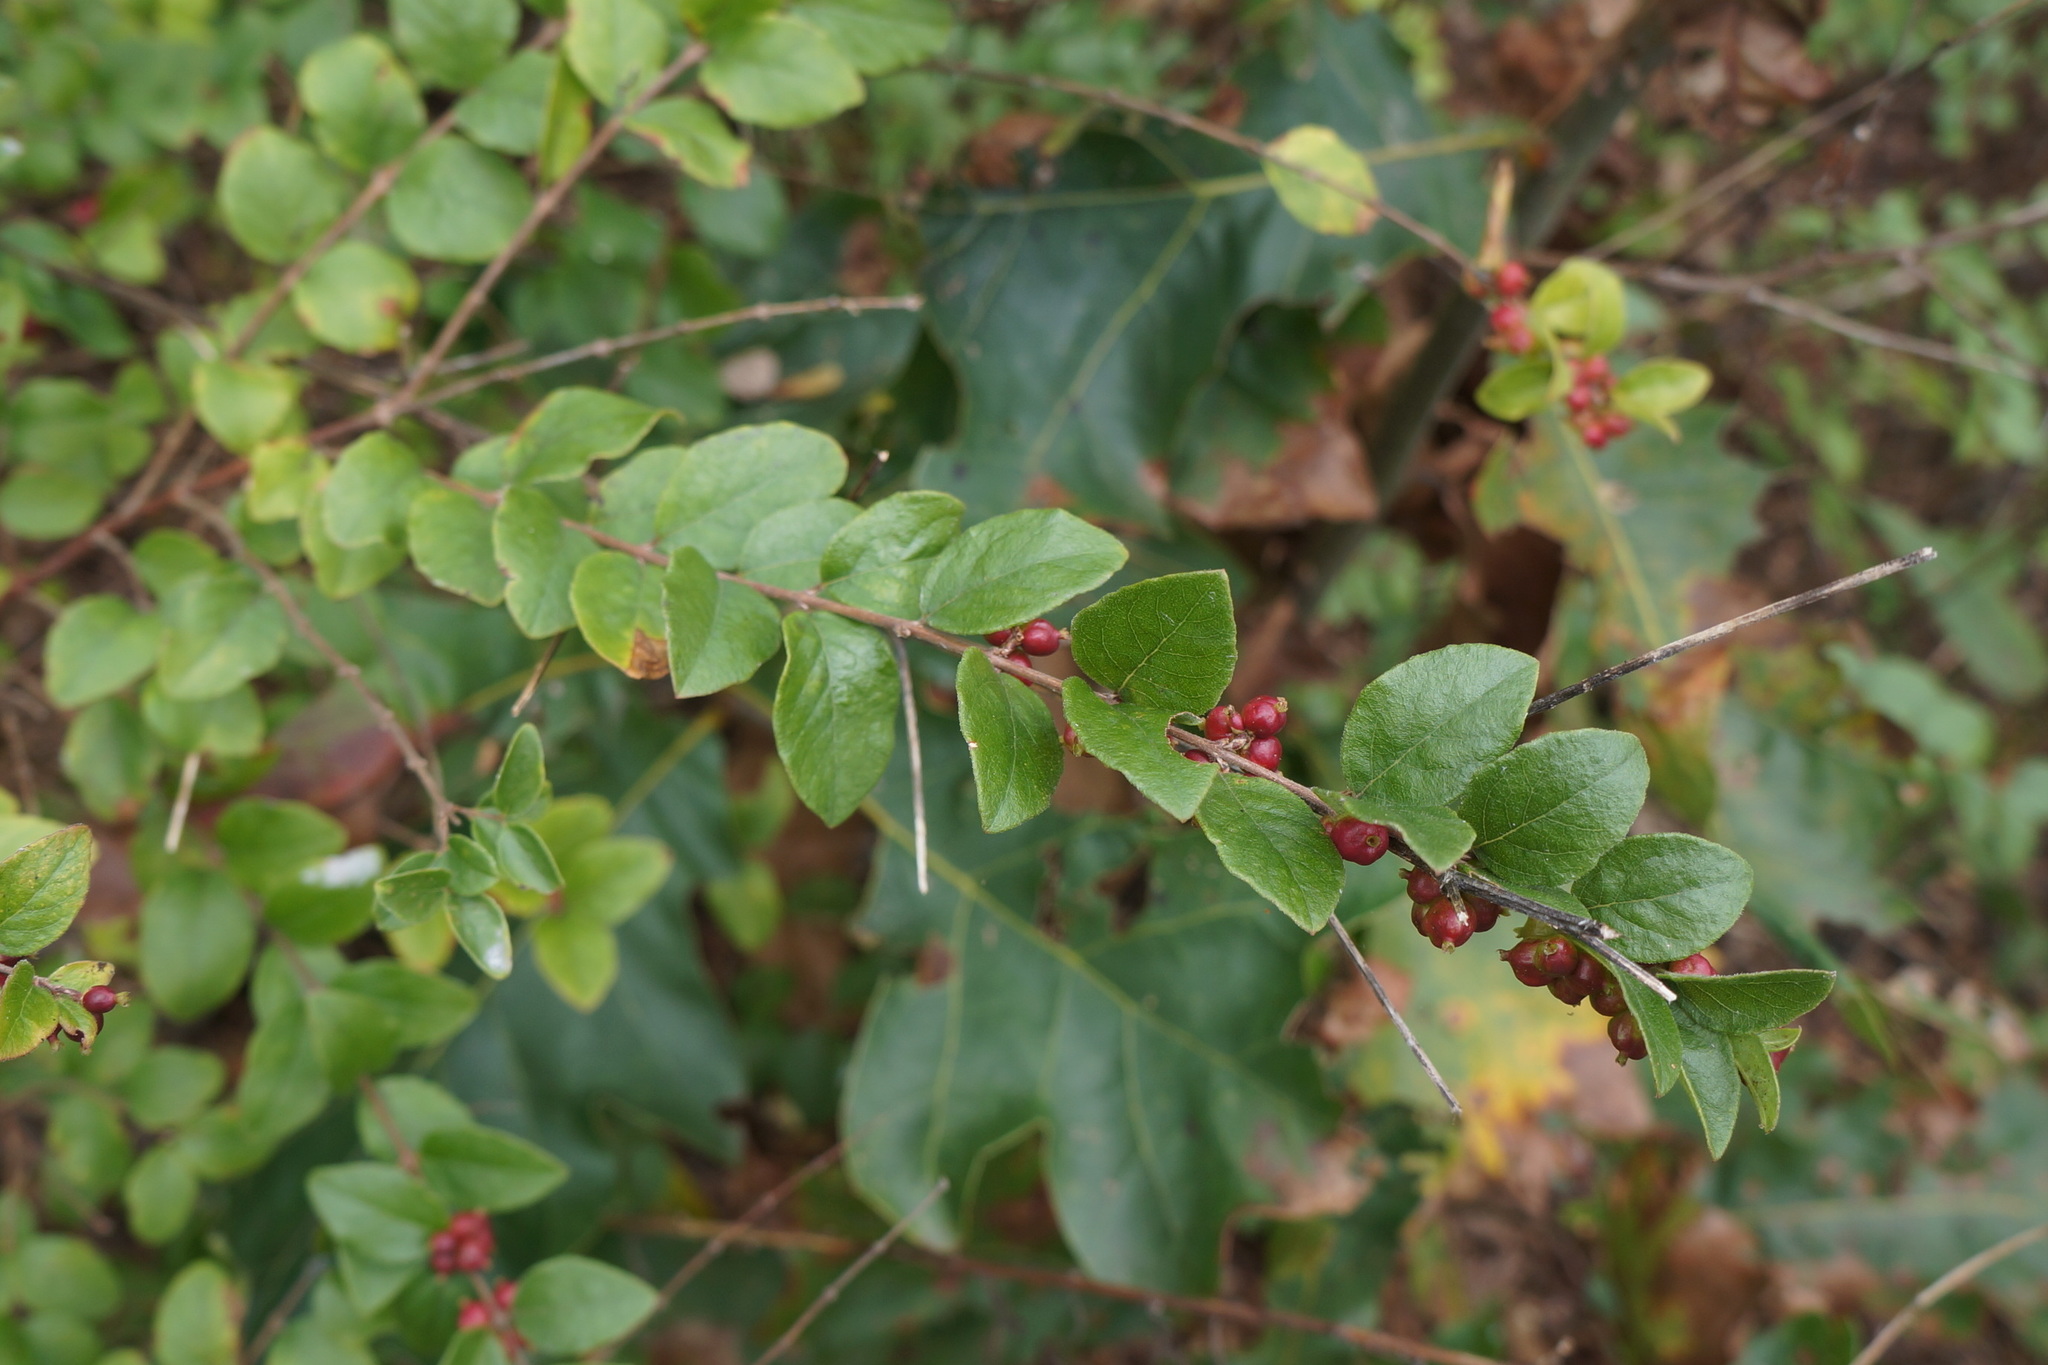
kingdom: Plantae
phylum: Tracheophyta
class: Magnoliopsida
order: Dipsacales
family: Caprifoliaceae
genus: Symphoricarpos
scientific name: Symphoricarpos orbiculatus
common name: Coralberry
